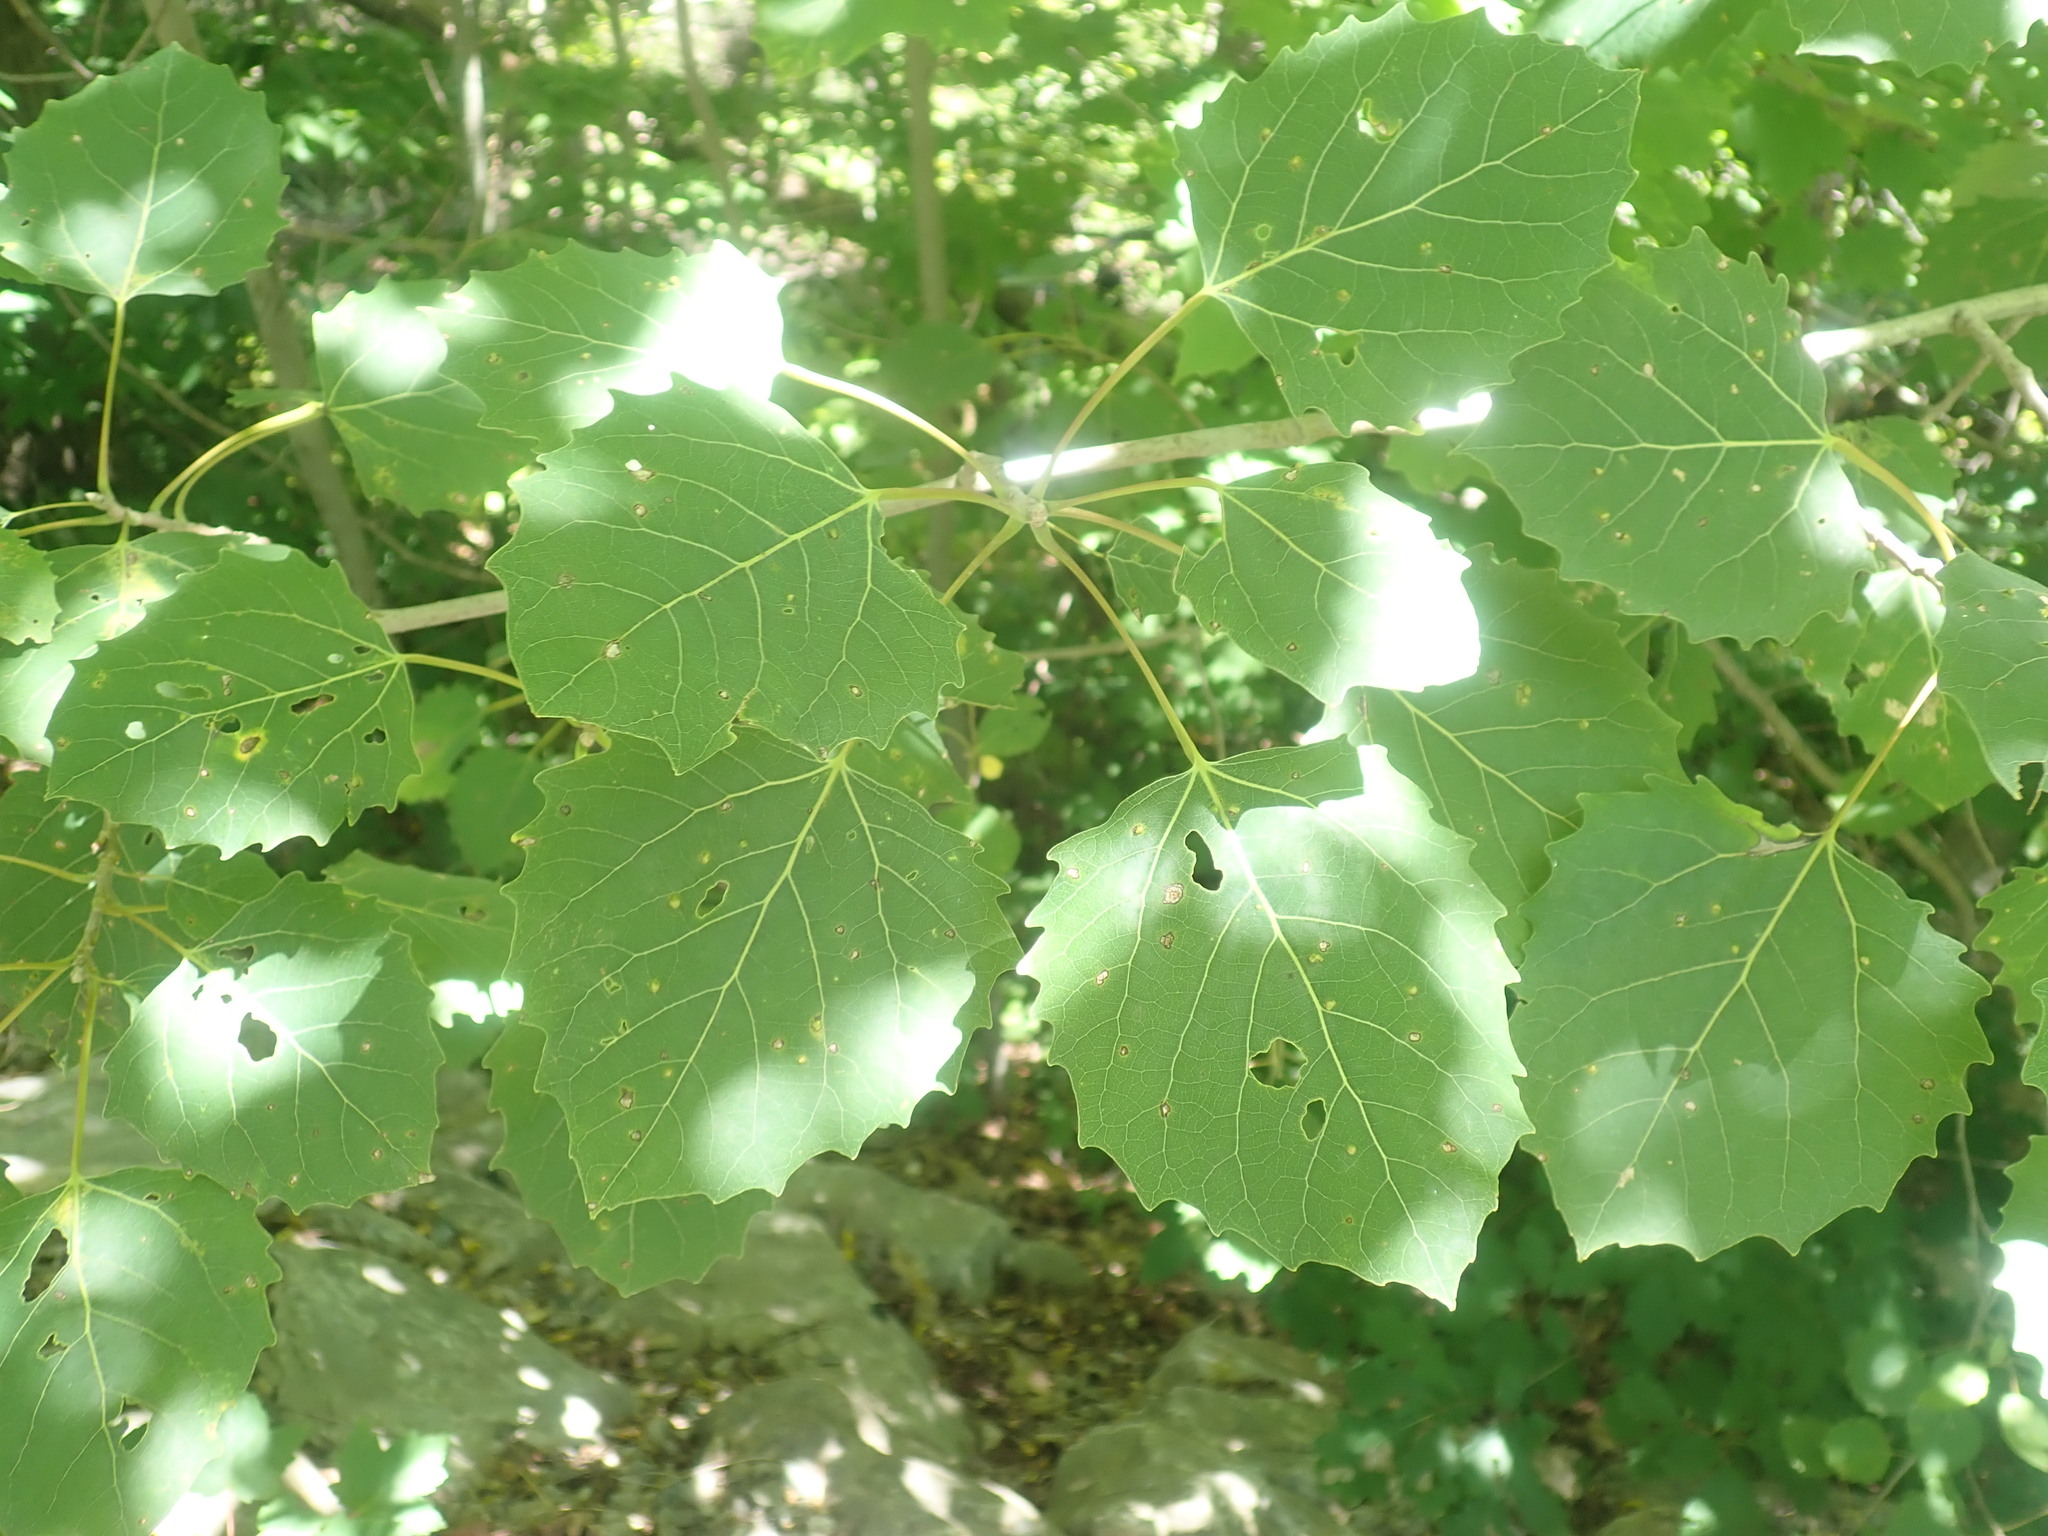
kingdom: Plantae
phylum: Tracheophyta
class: Magnoliopsida
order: Malpighiales
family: Salicaceae
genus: Populus
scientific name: Populus grandidentata
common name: Bigtooth aspen
